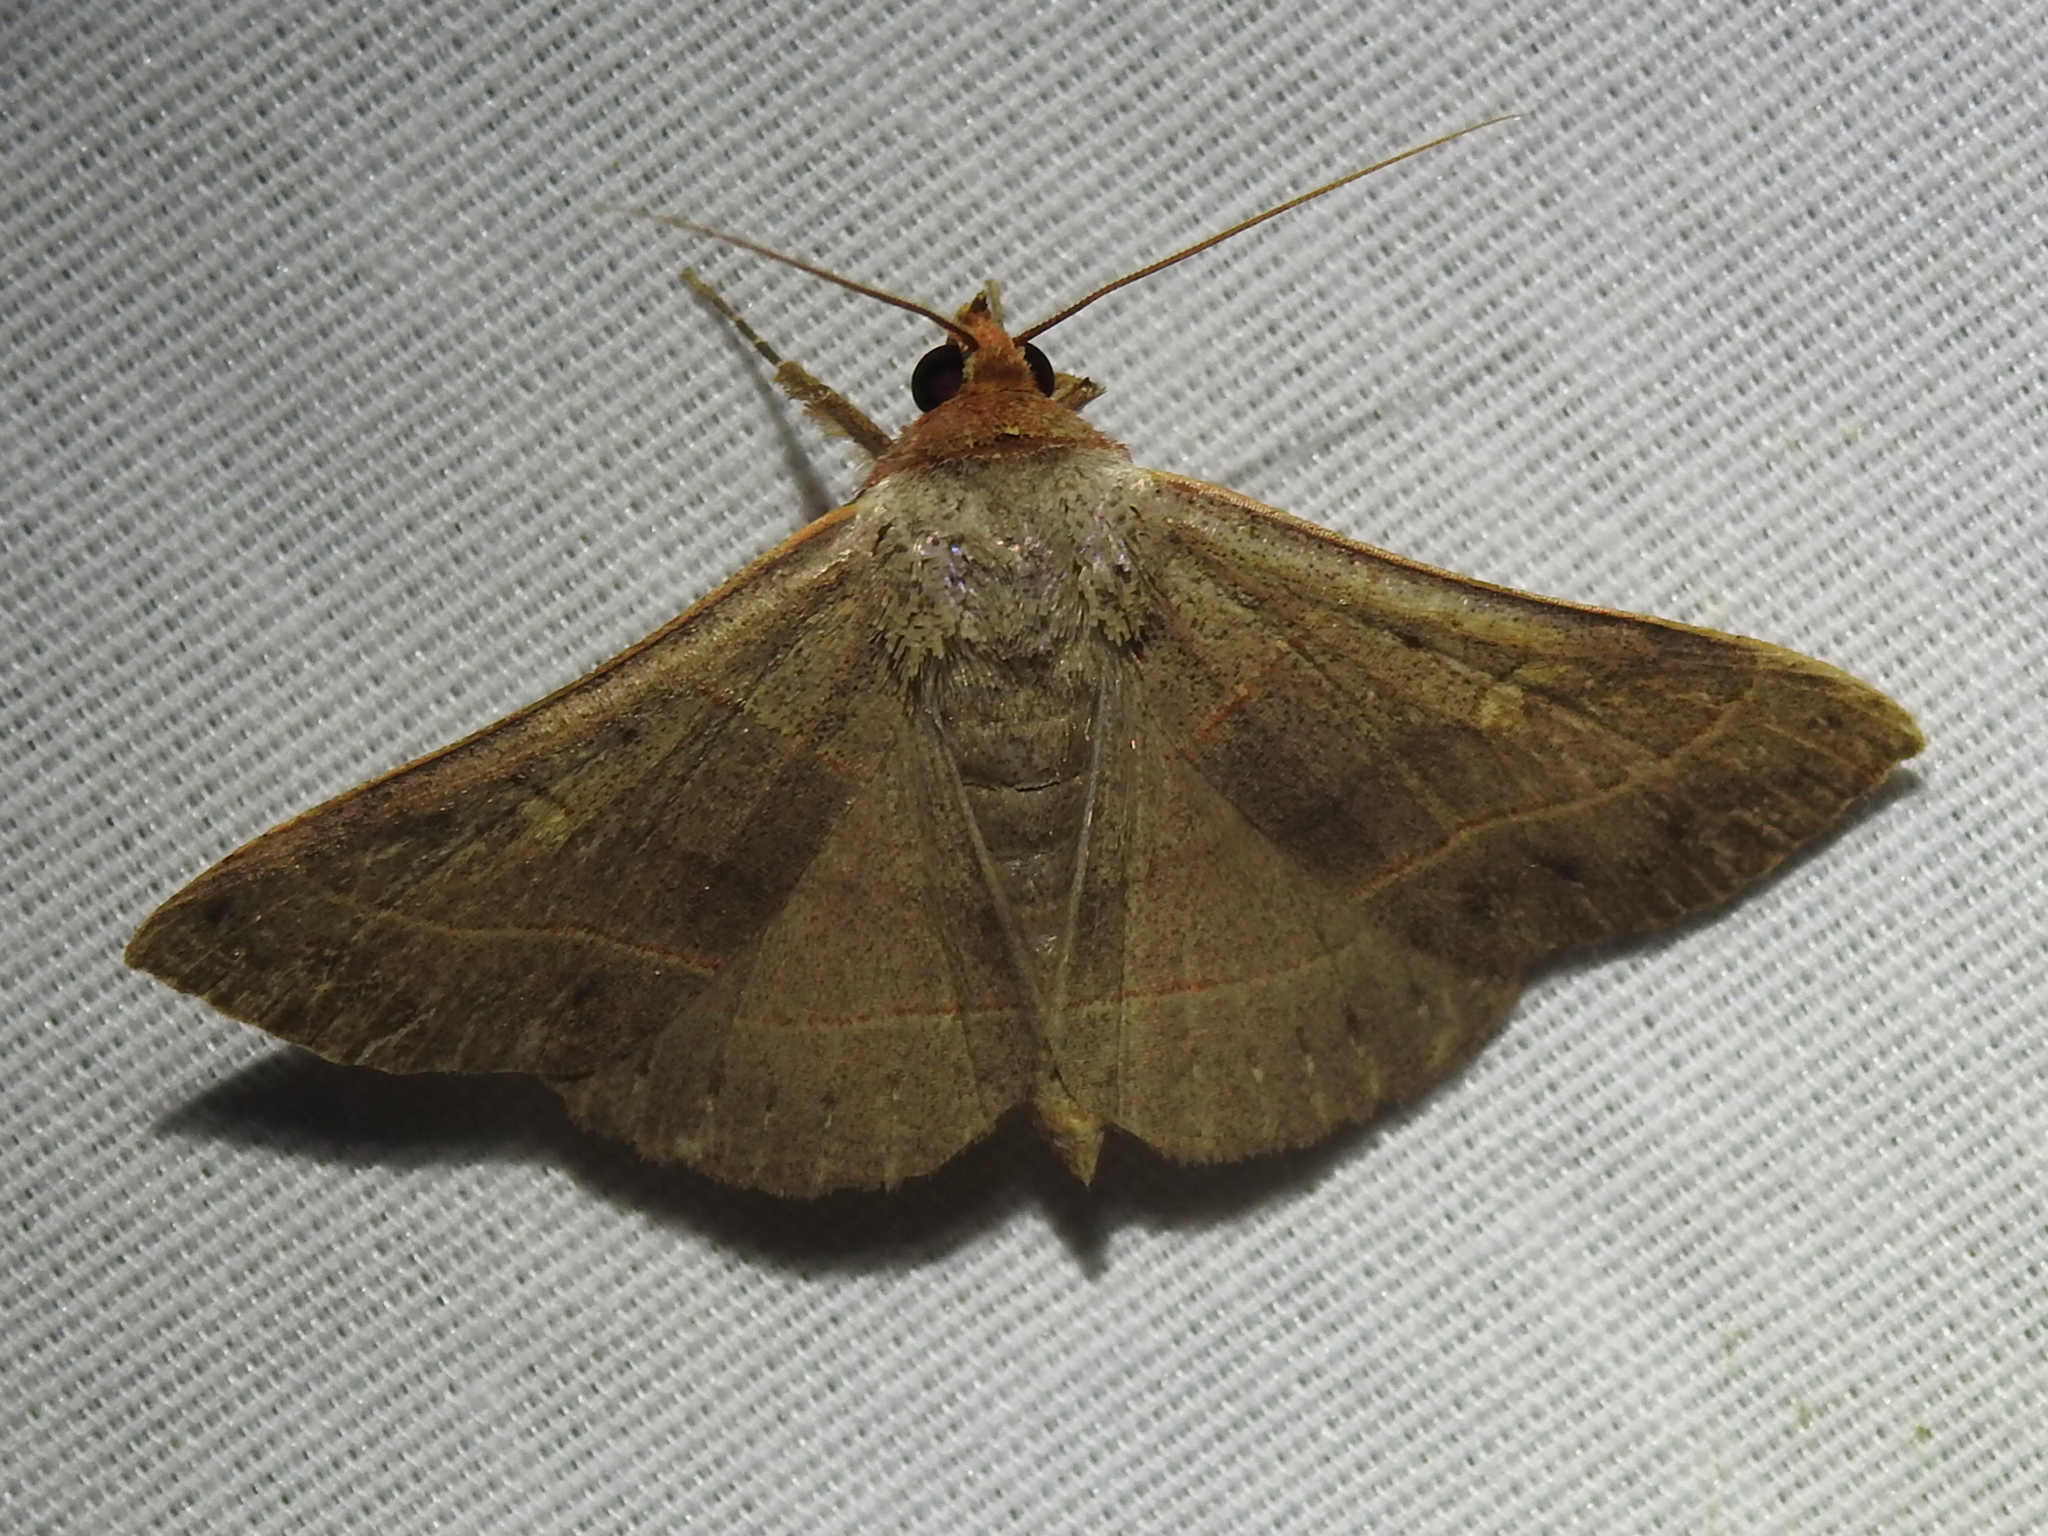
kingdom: Animalia
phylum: Arthropoda
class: Insecta
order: Lepidoptera
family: Erebidae
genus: Panopoda
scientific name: Panopoda rufimargo
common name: Red-lined panopoda moth
